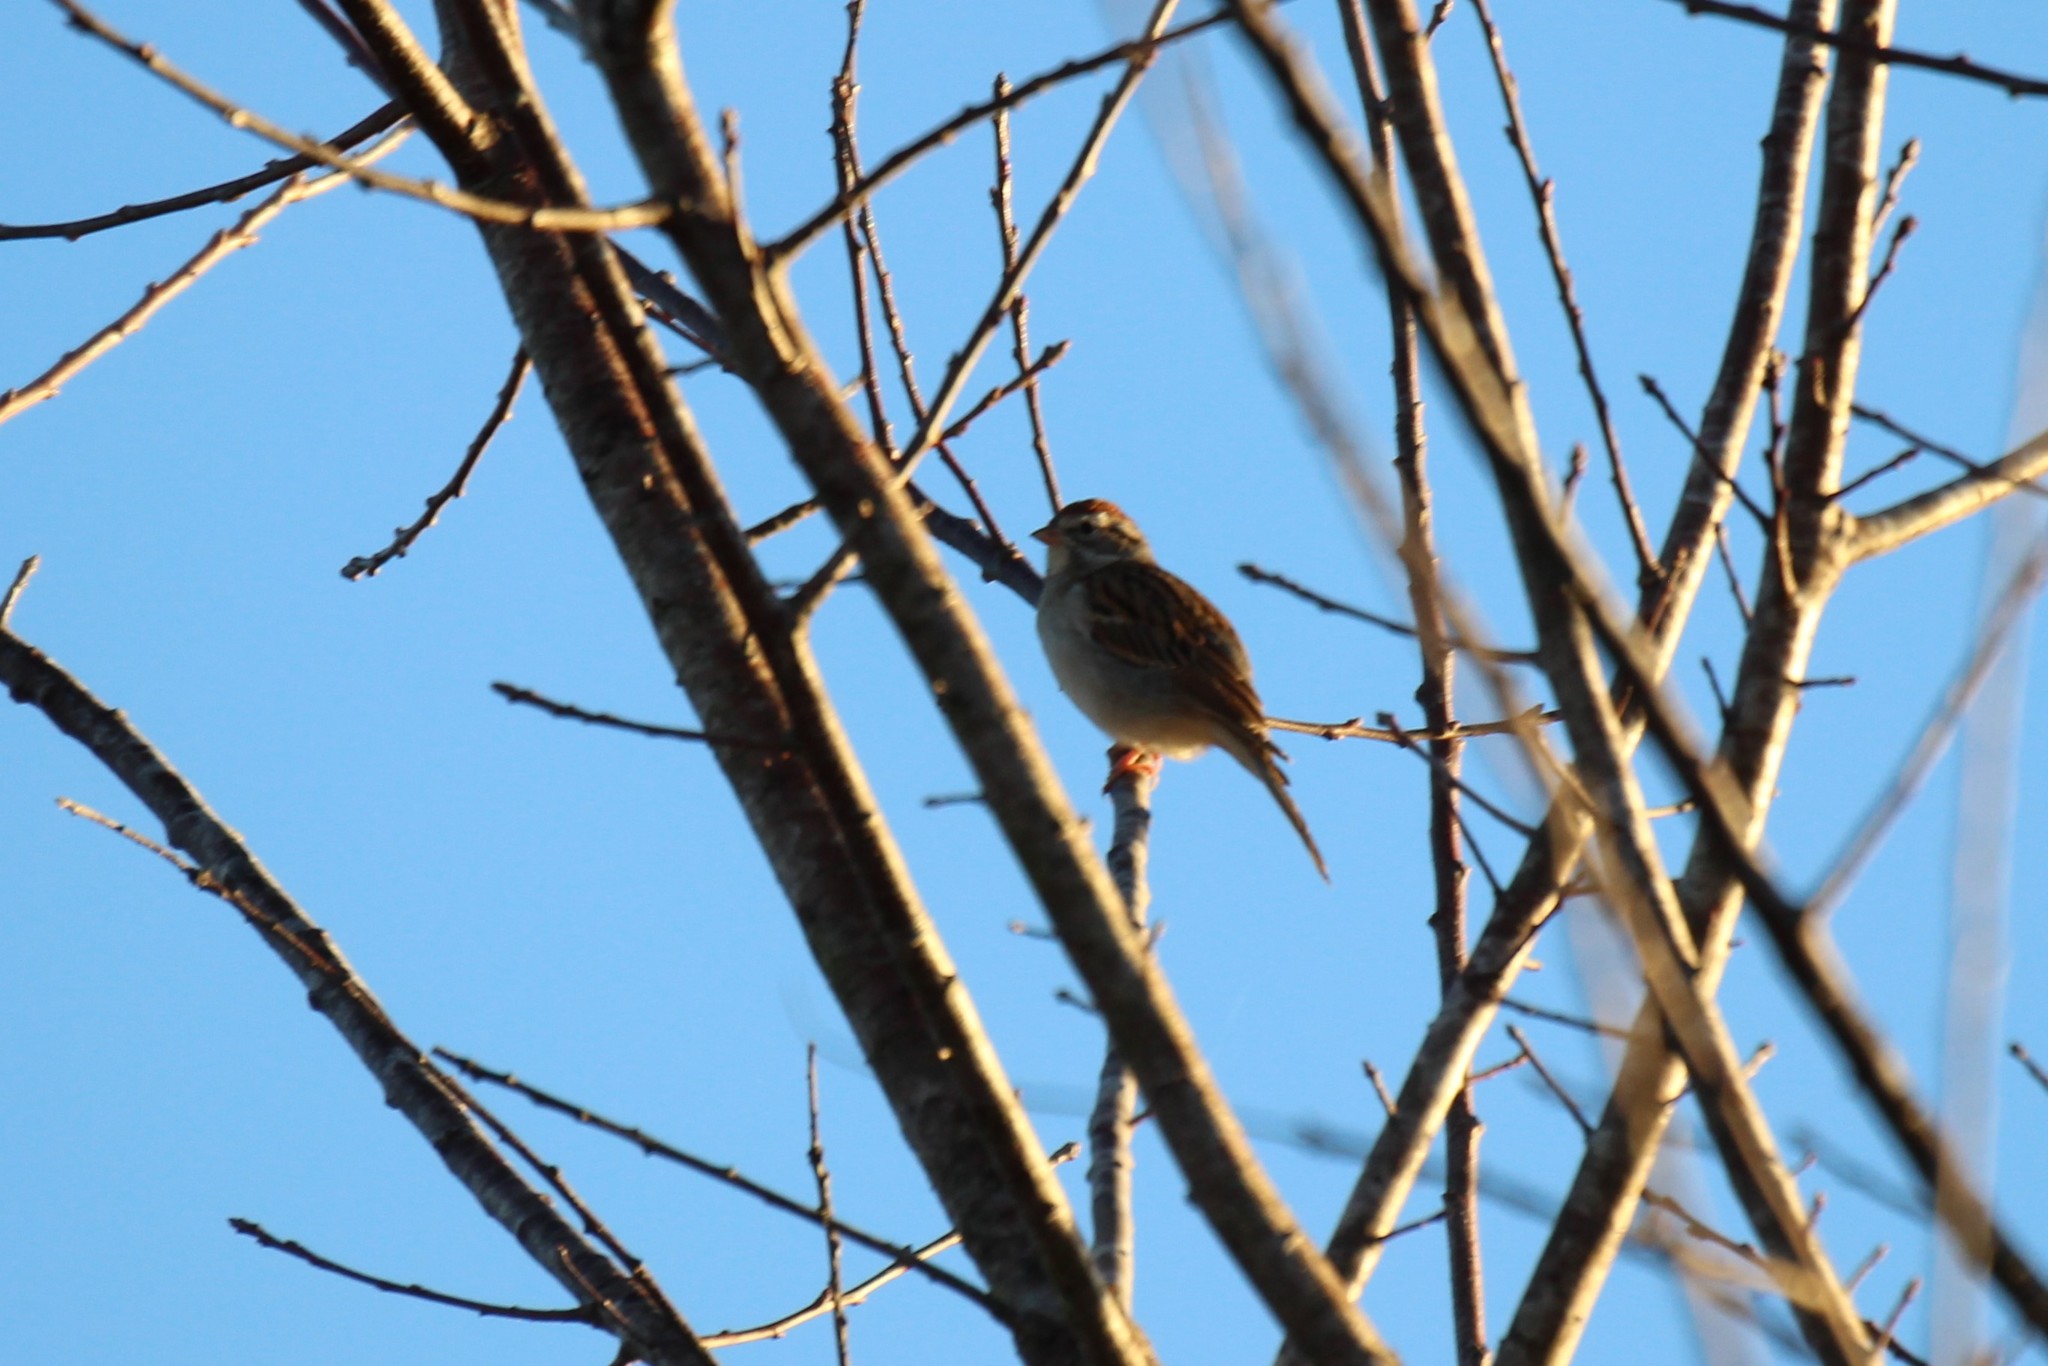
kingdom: Animalia
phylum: Chordata
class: Aves
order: Passeriformes
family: Passerellidae
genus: Spizella
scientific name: Spizella passerina
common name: Chipping sparrow
